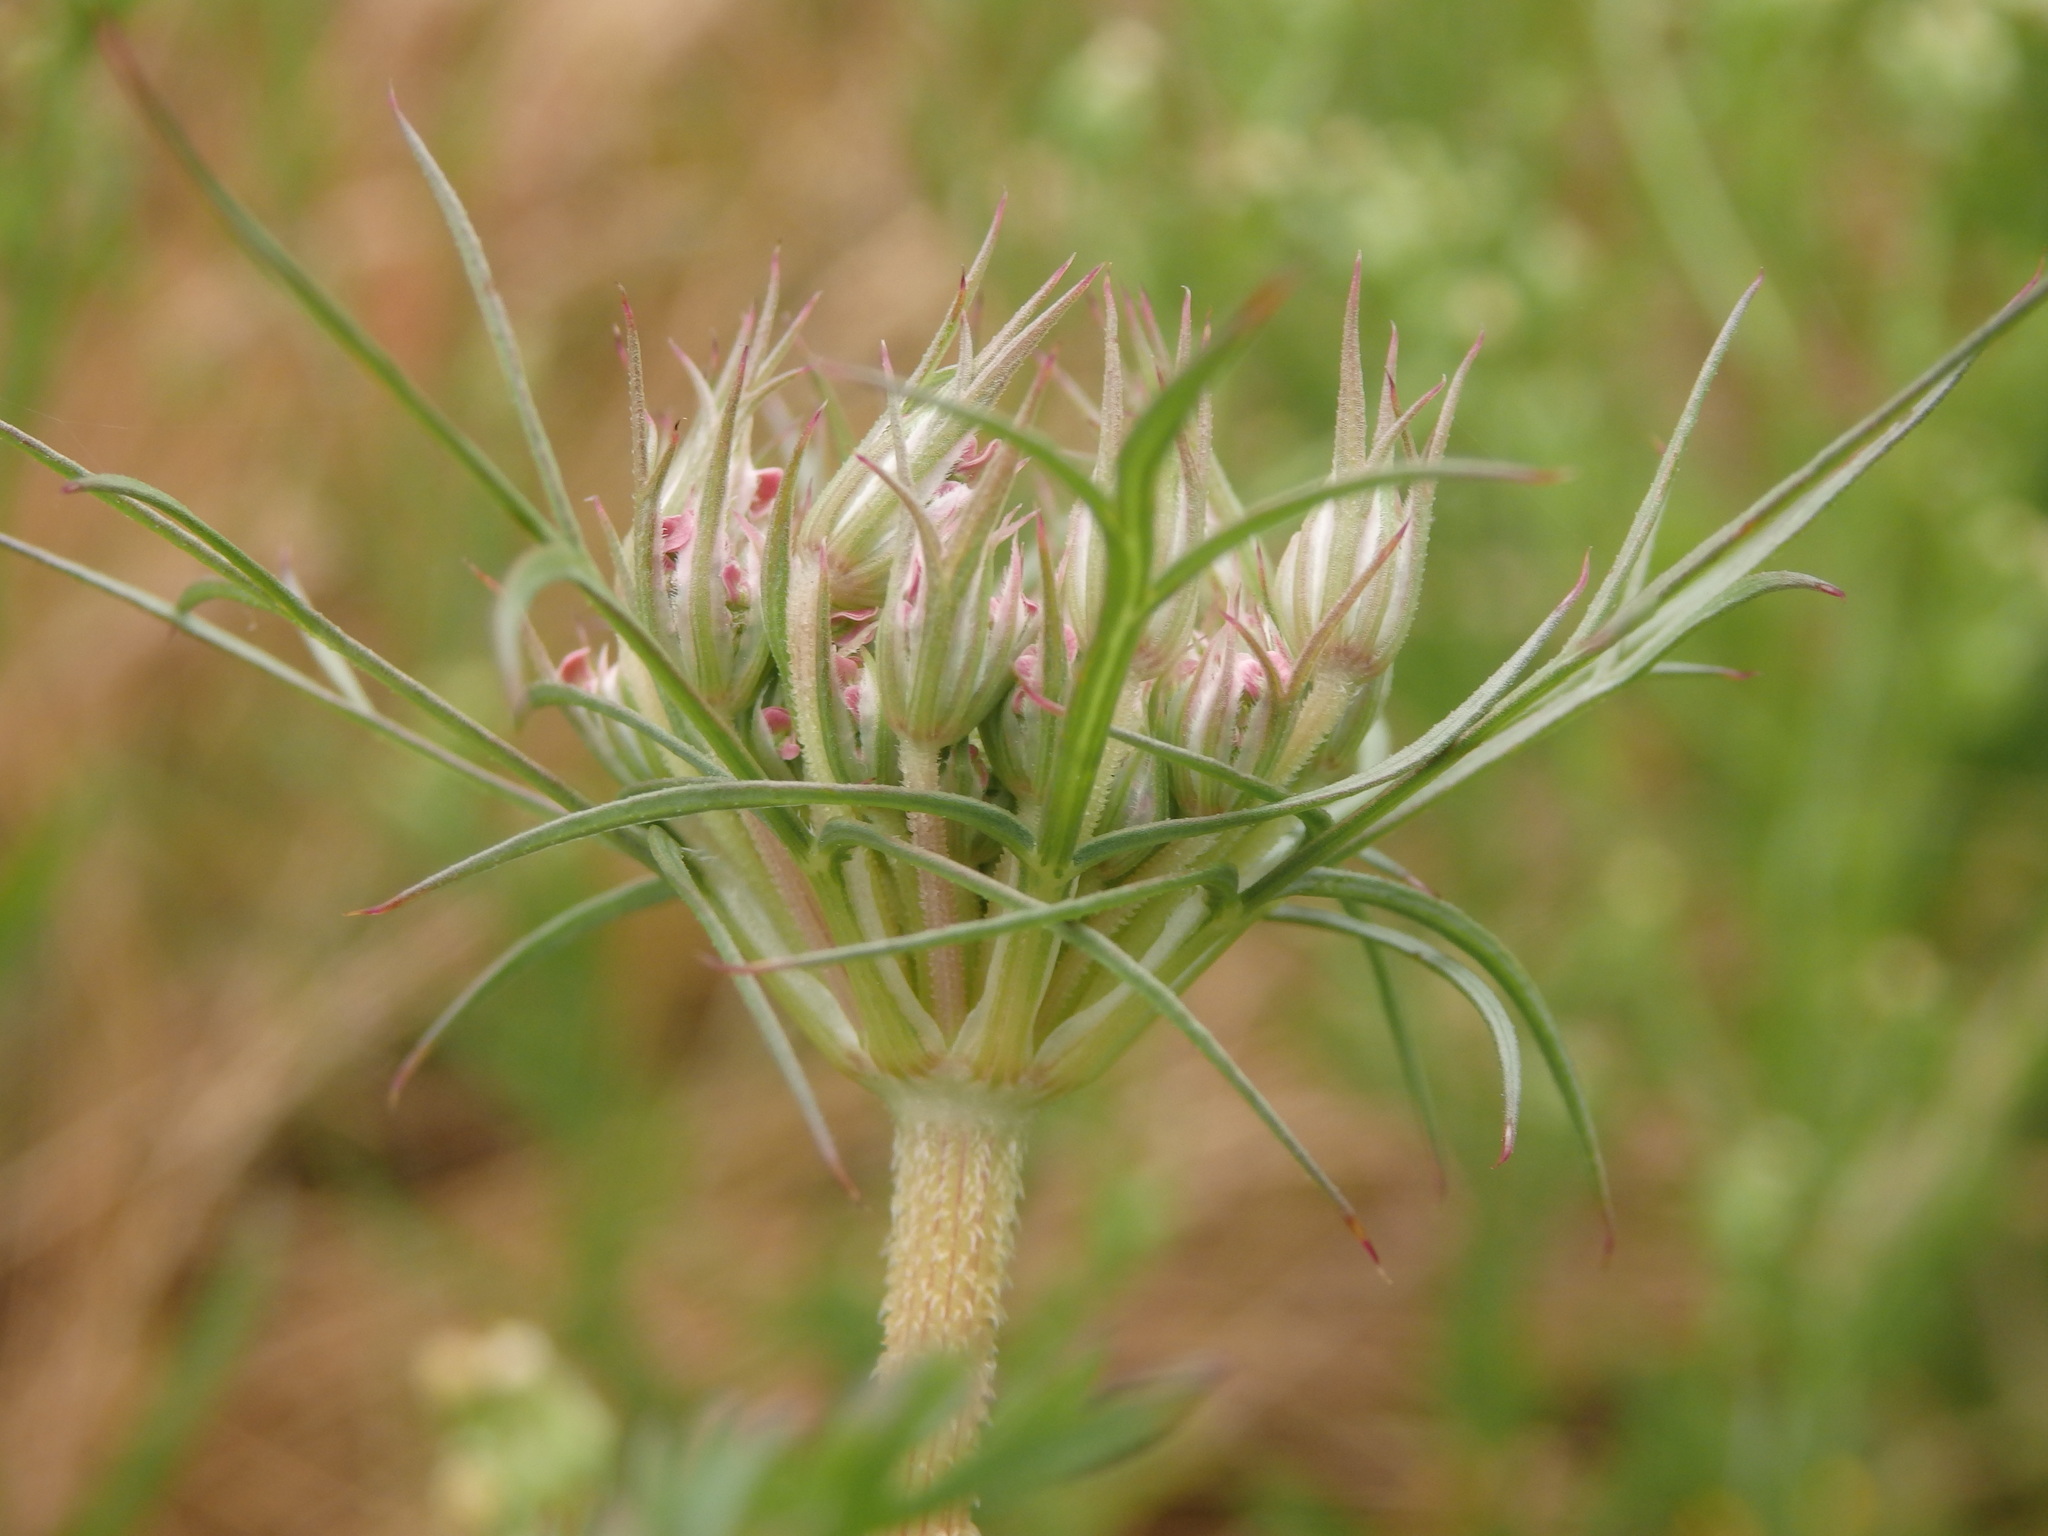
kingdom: Plantae
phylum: Tracheophyta
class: Magnoliopsida
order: Apiales
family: Apiaceae
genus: Daucus
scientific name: Daucus carota
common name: Wild carrot
